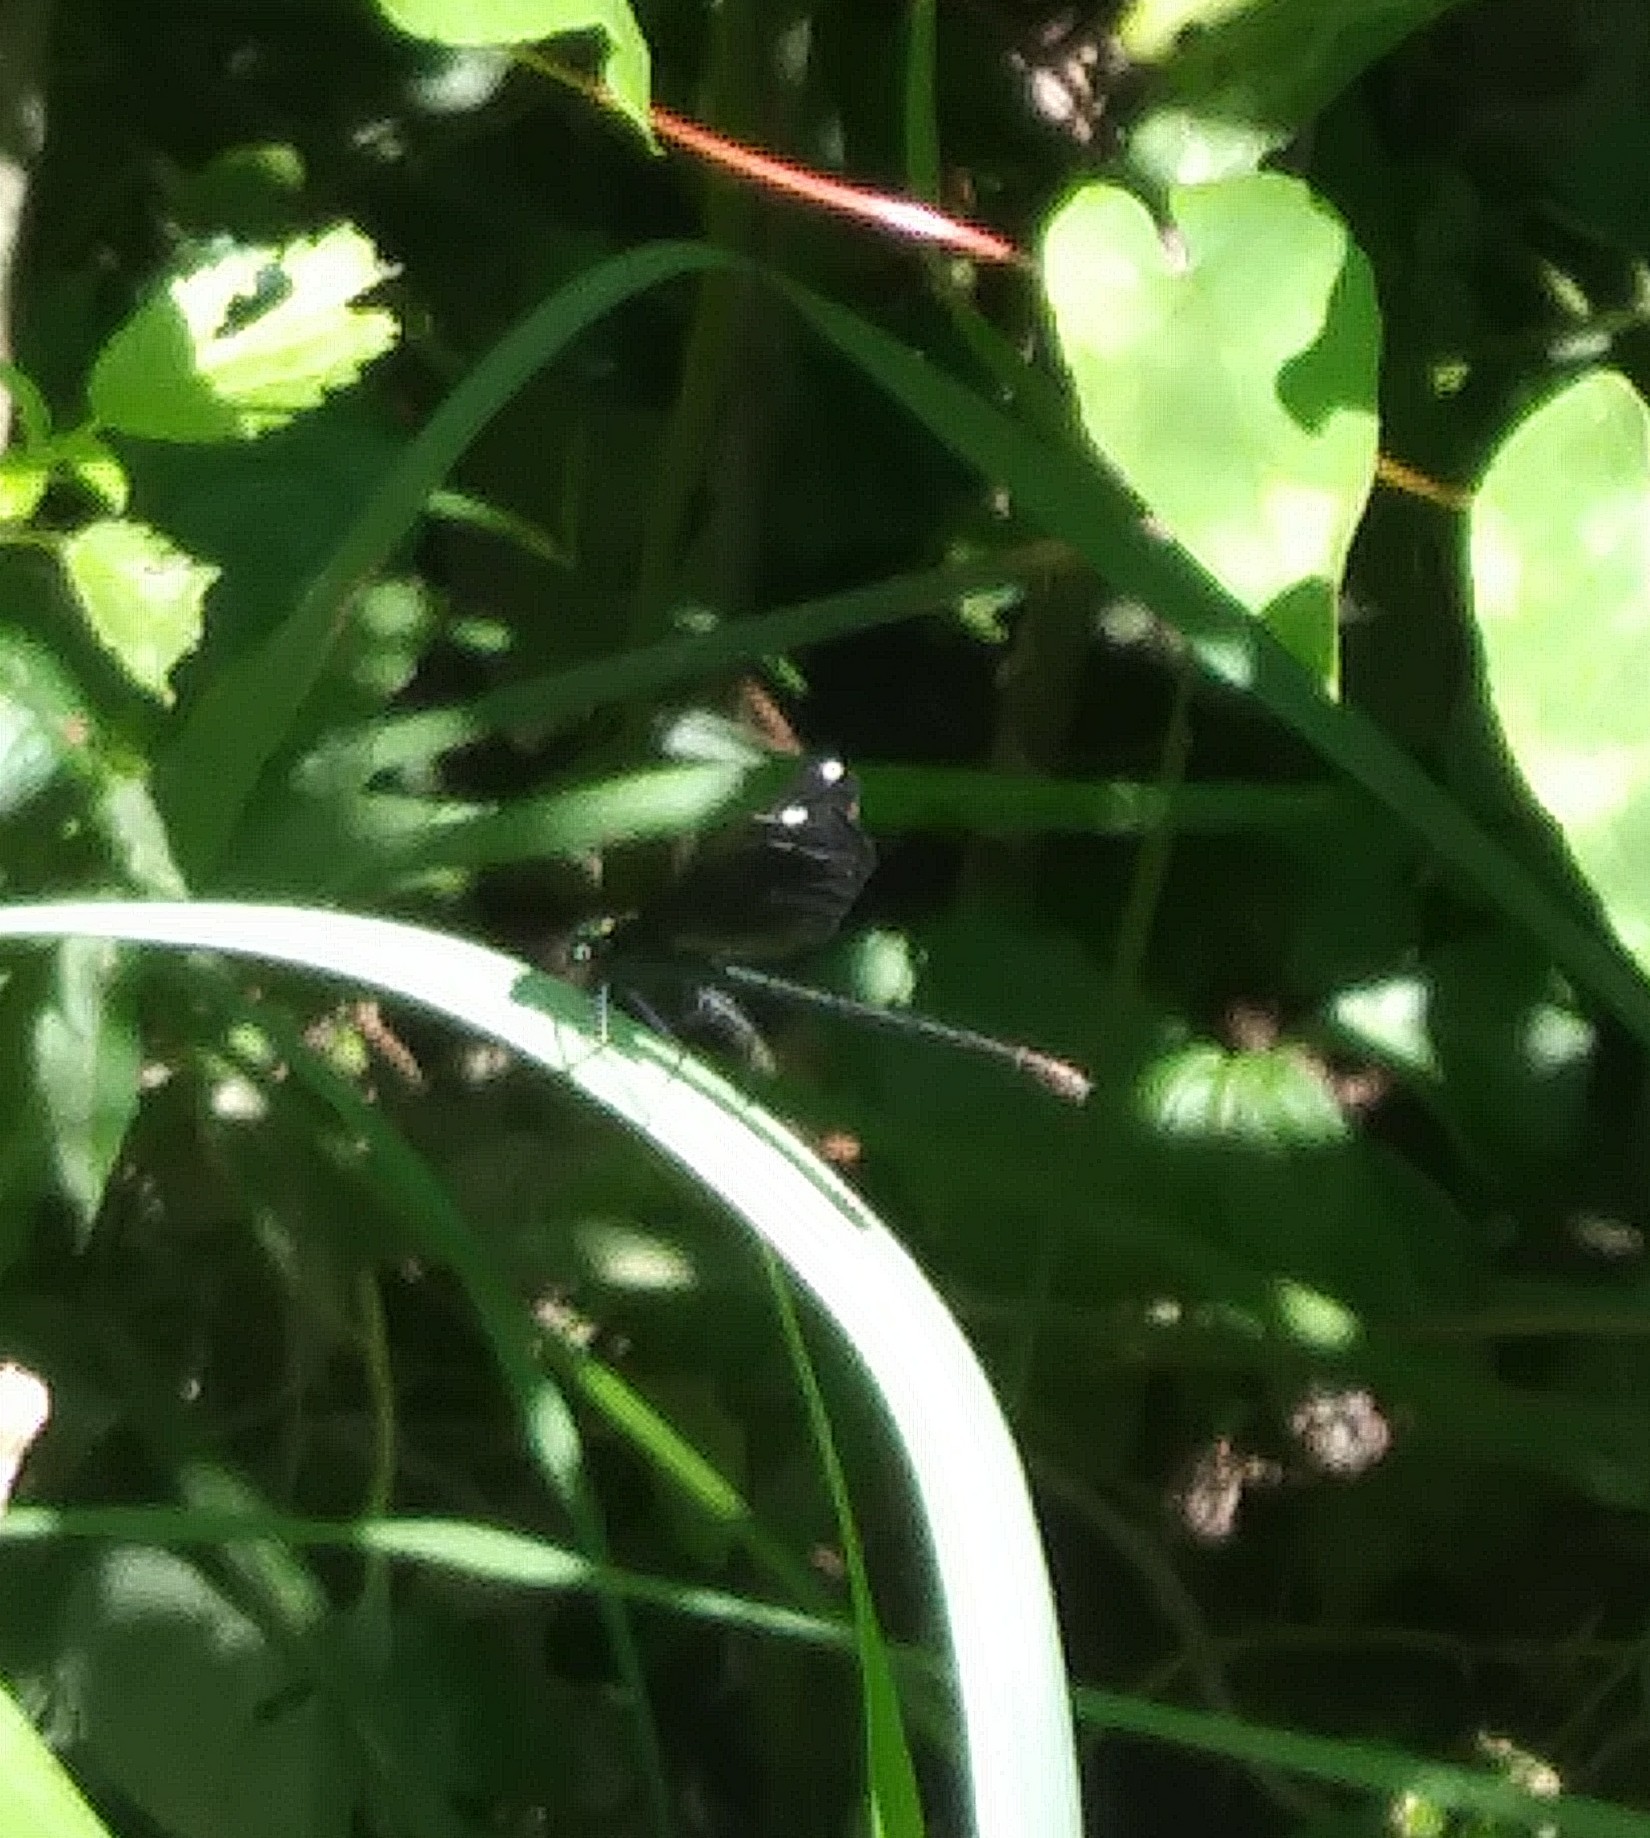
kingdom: Animalia
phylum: Arthropoda
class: Insecta
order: Odonata
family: Calopterygidae
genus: Calopteryx
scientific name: Calopteryx maculata
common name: Ebony jewelwing
